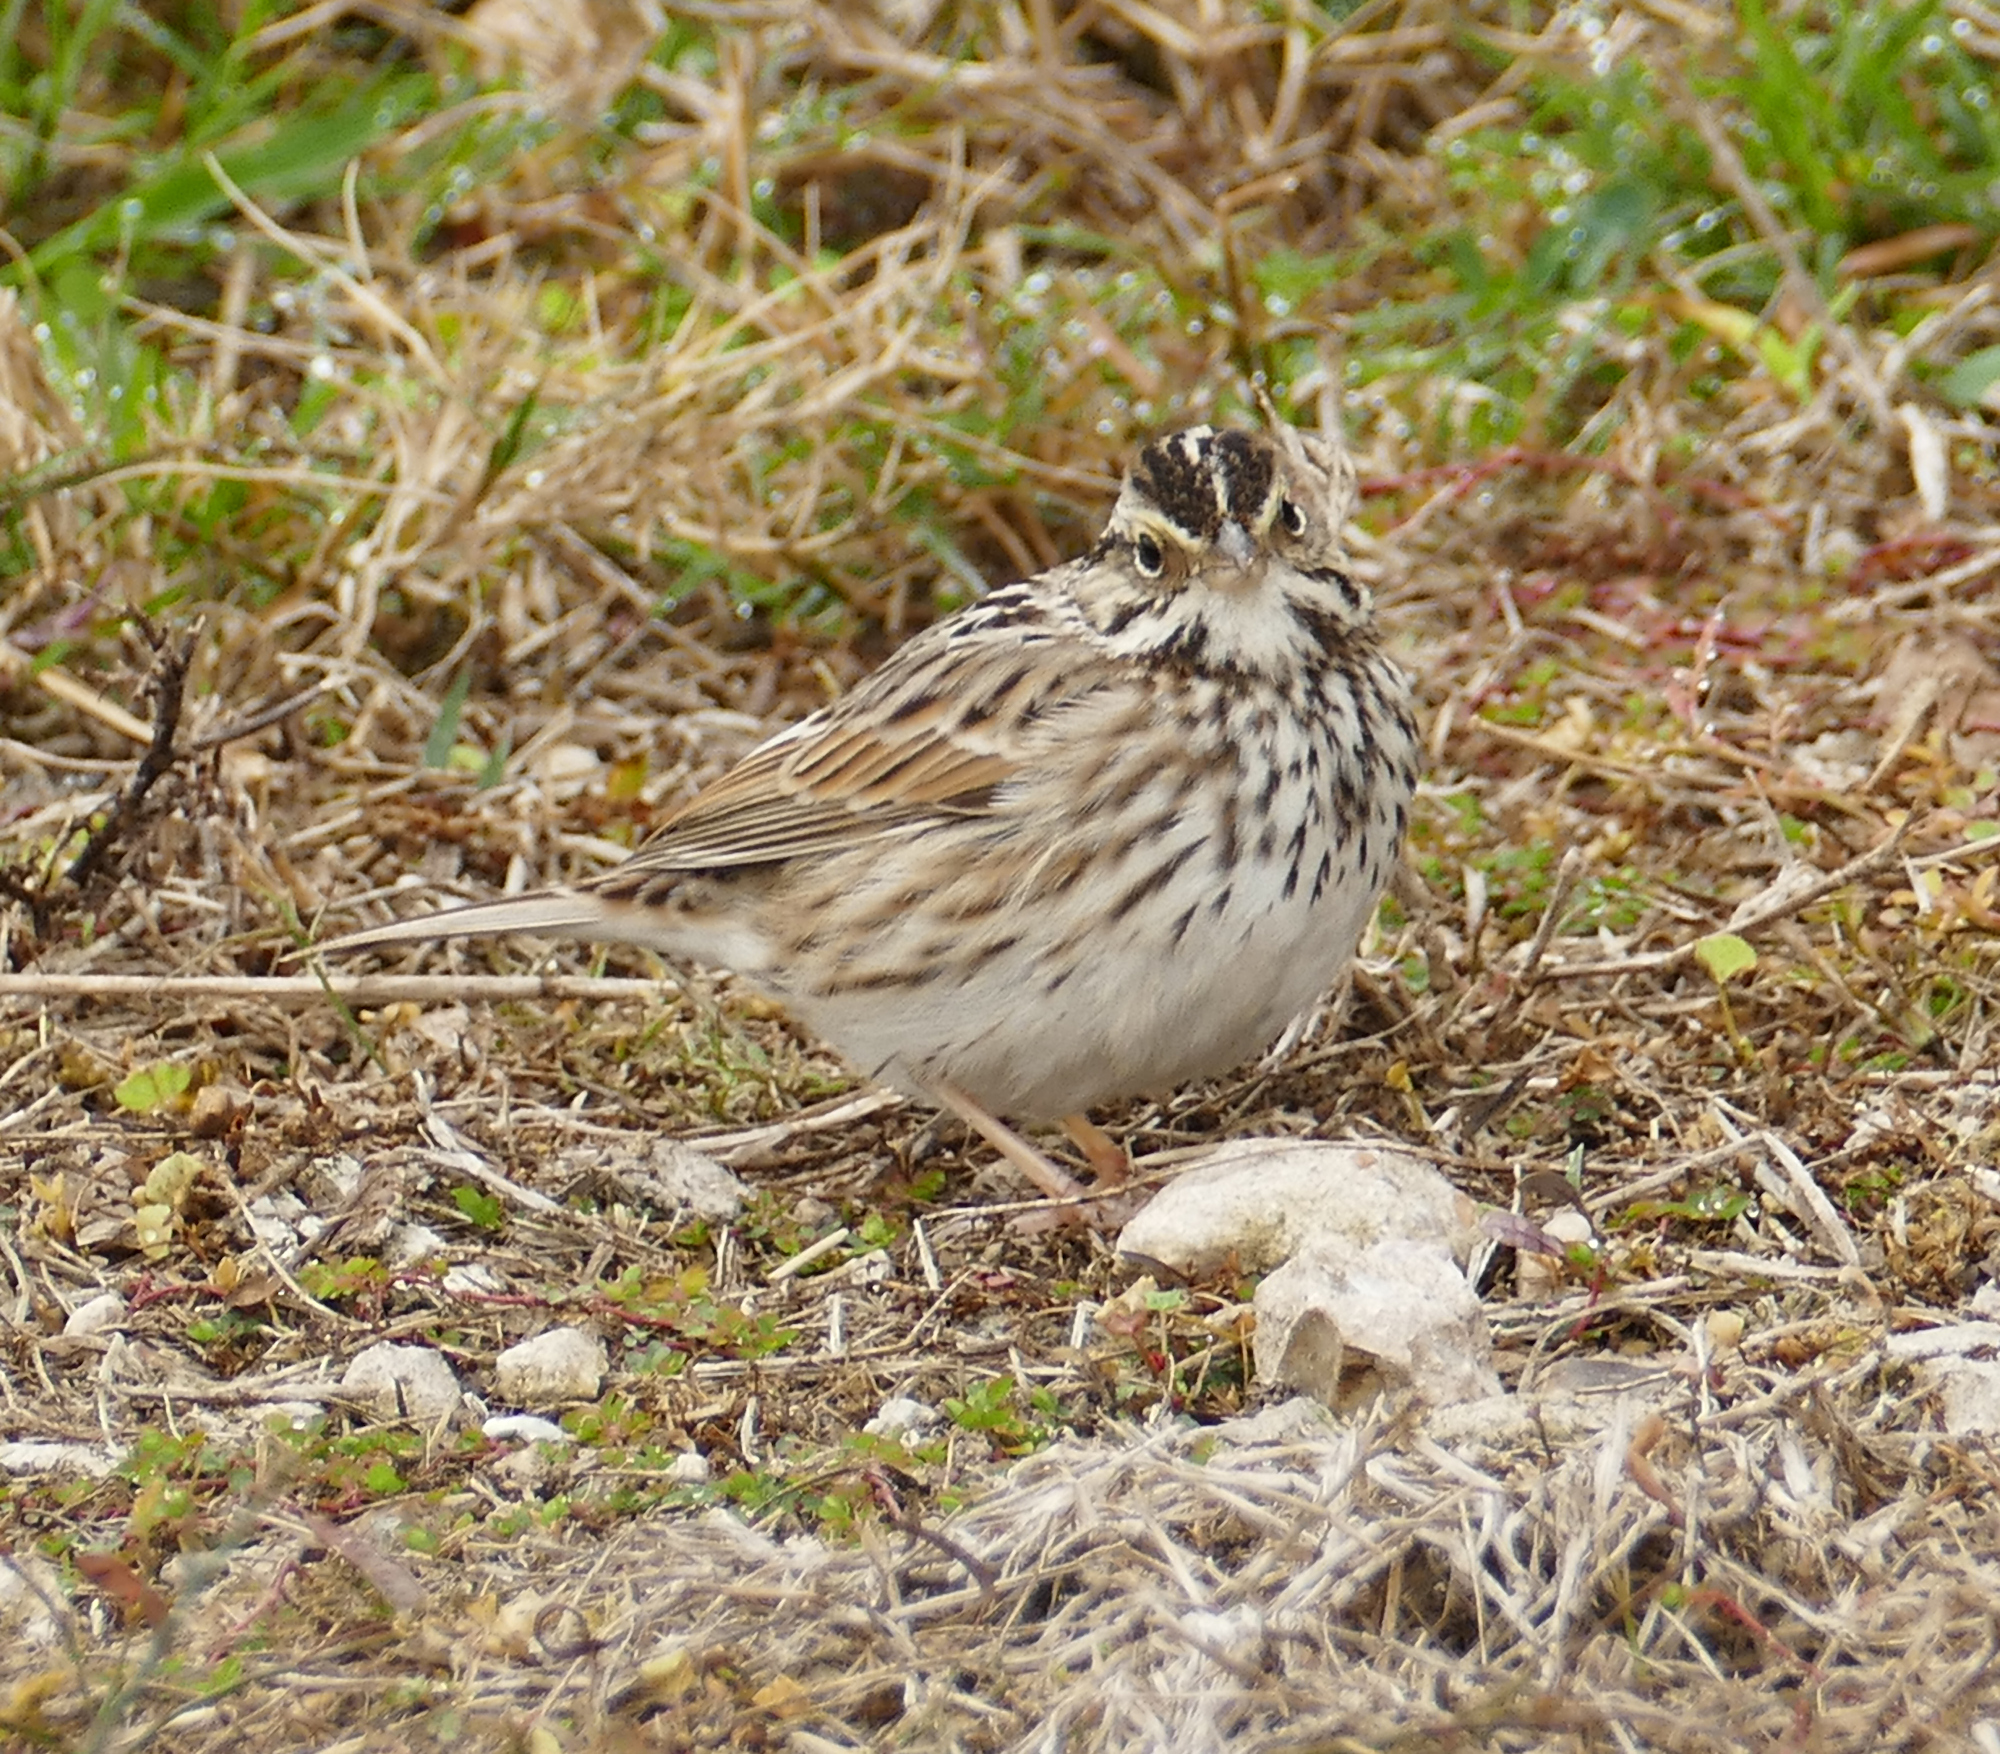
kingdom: Animalia
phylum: Chordata
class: Aves
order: Passeriformes
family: Passerellidae
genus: Passerculus
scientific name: Passerculus sandwichensis
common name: Savannah sparrow
